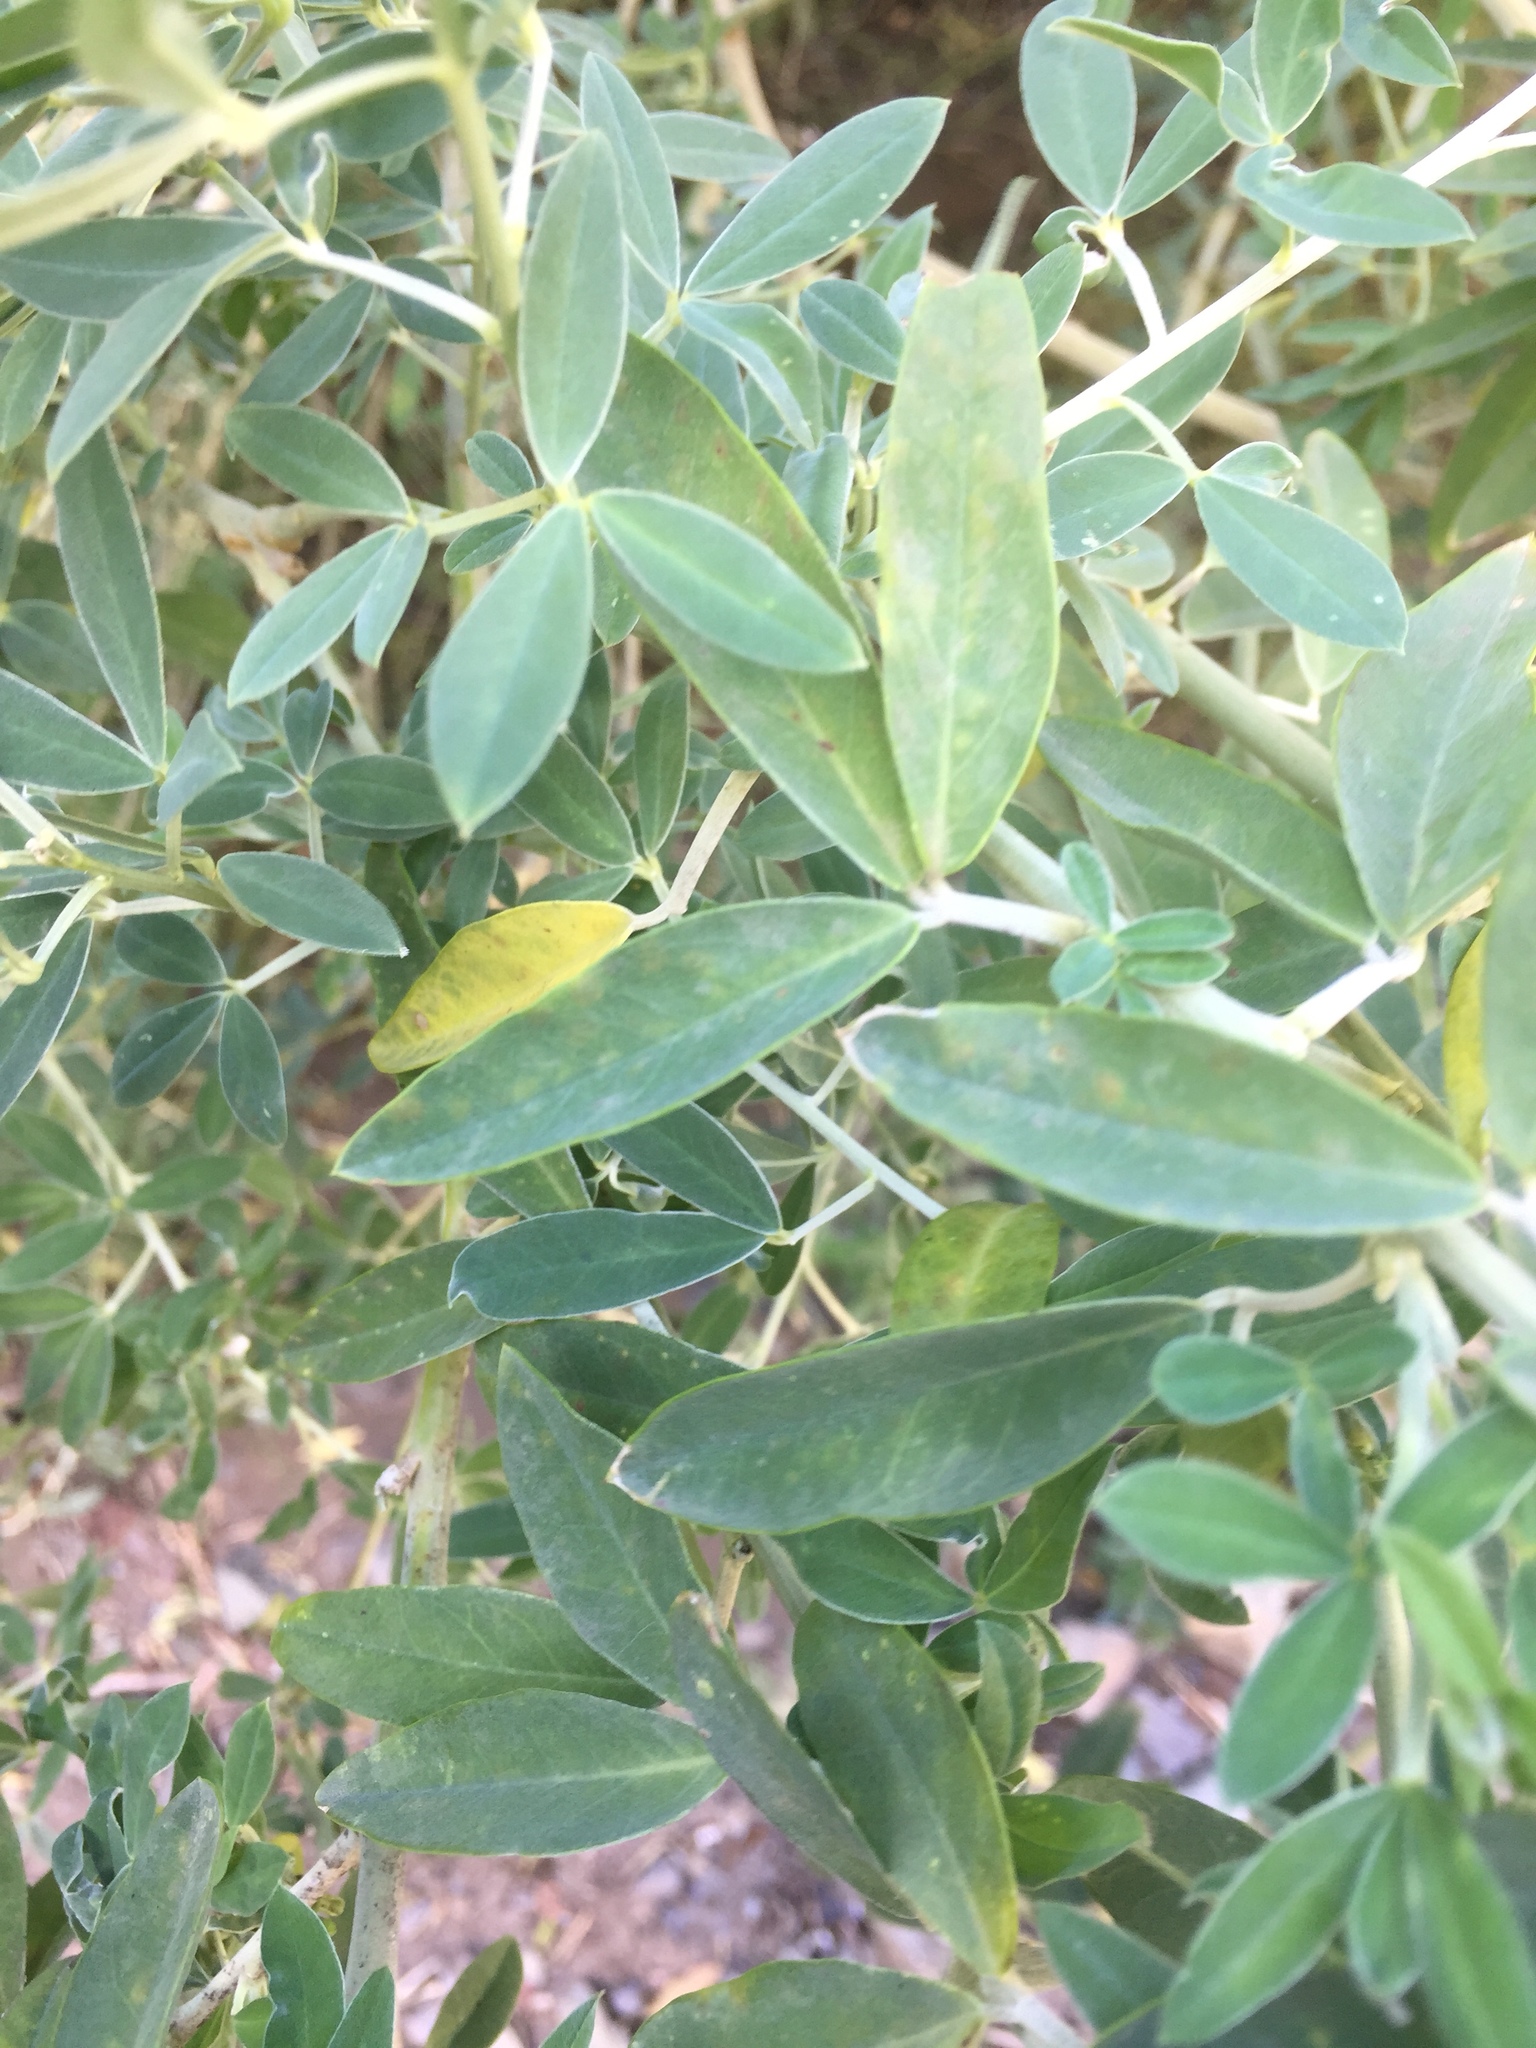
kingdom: Plantae
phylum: Tracheophyta
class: Magnoliopsida
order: Fabales
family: Fabaceae
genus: Chamaecytisus
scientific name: Chamaecytisus prolifer
